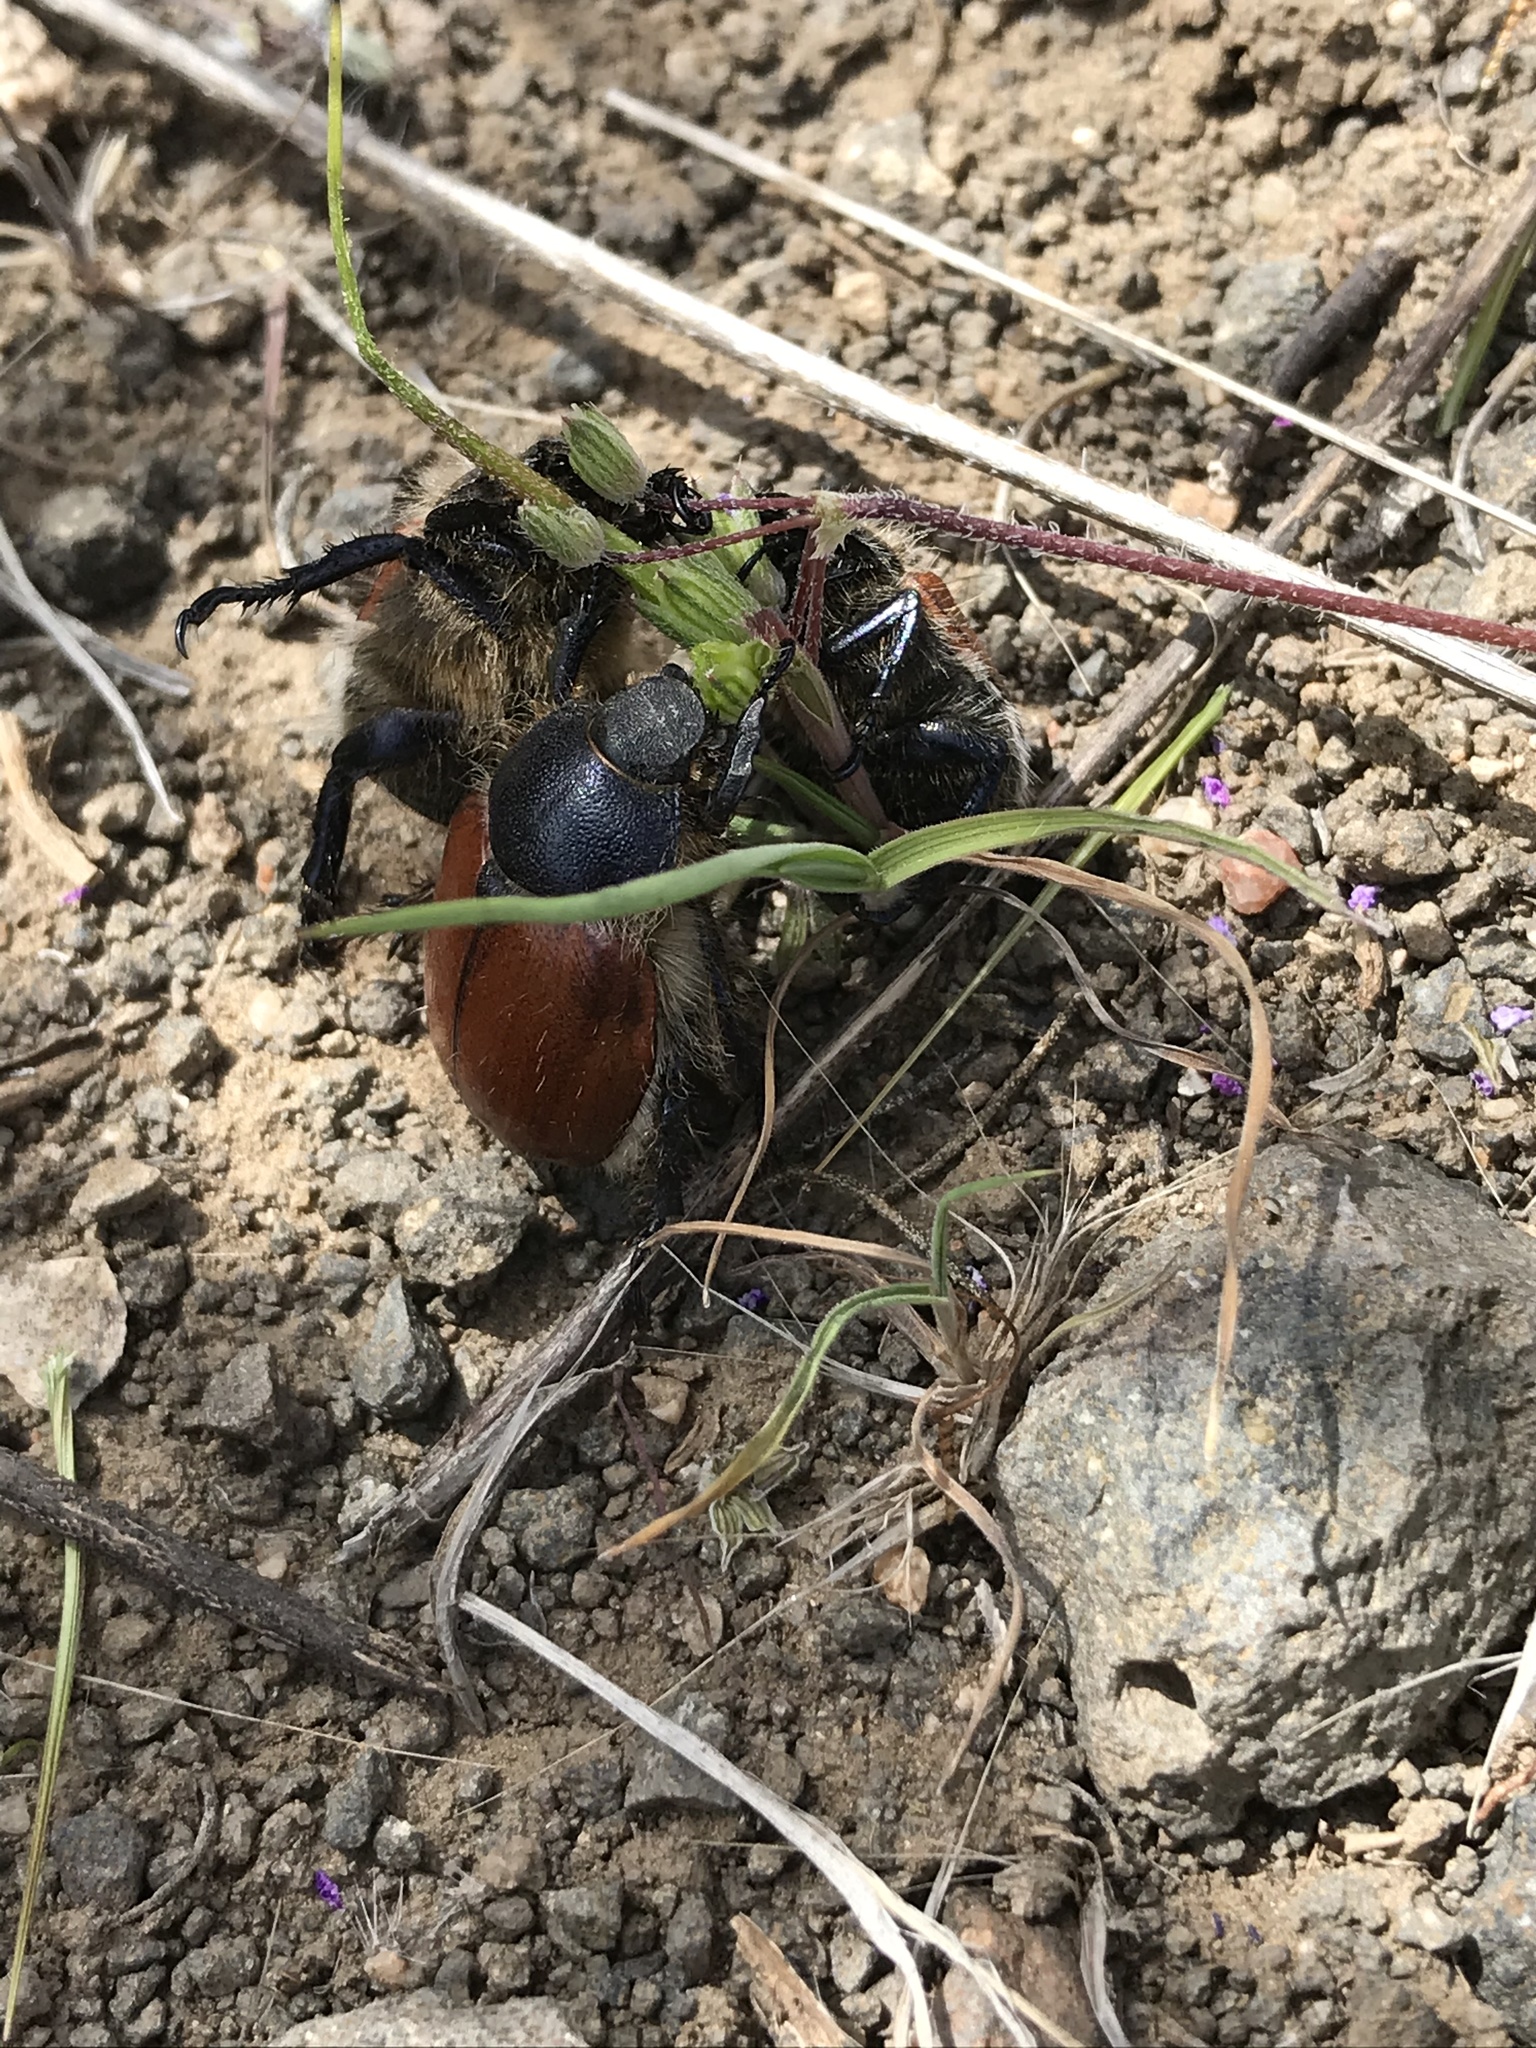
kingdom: Animalia
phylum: Arthropoda
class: Insecta
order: Coleoptera
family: Scarabaeidae
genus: Paracotalpa
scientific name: Paracotalpa ursina
